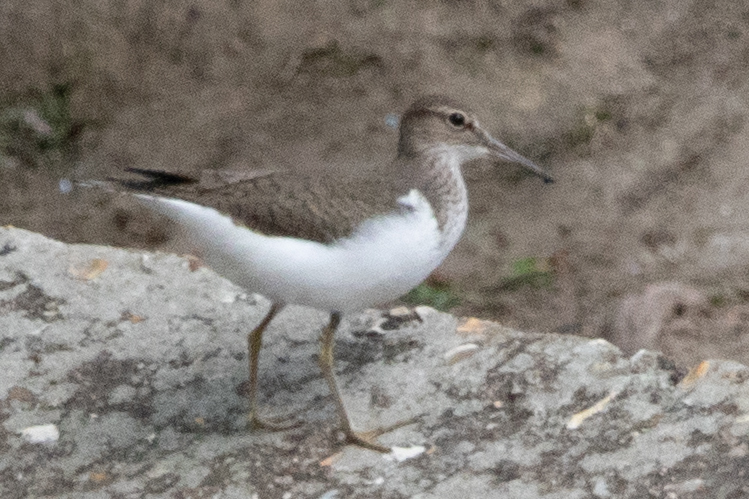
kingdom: Animalia
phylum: Chordata
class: Aves
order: Charadriiformes
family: Scolopacidae
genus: Actitis
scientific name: Actitis hypoleucos
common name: Common sandpiper
